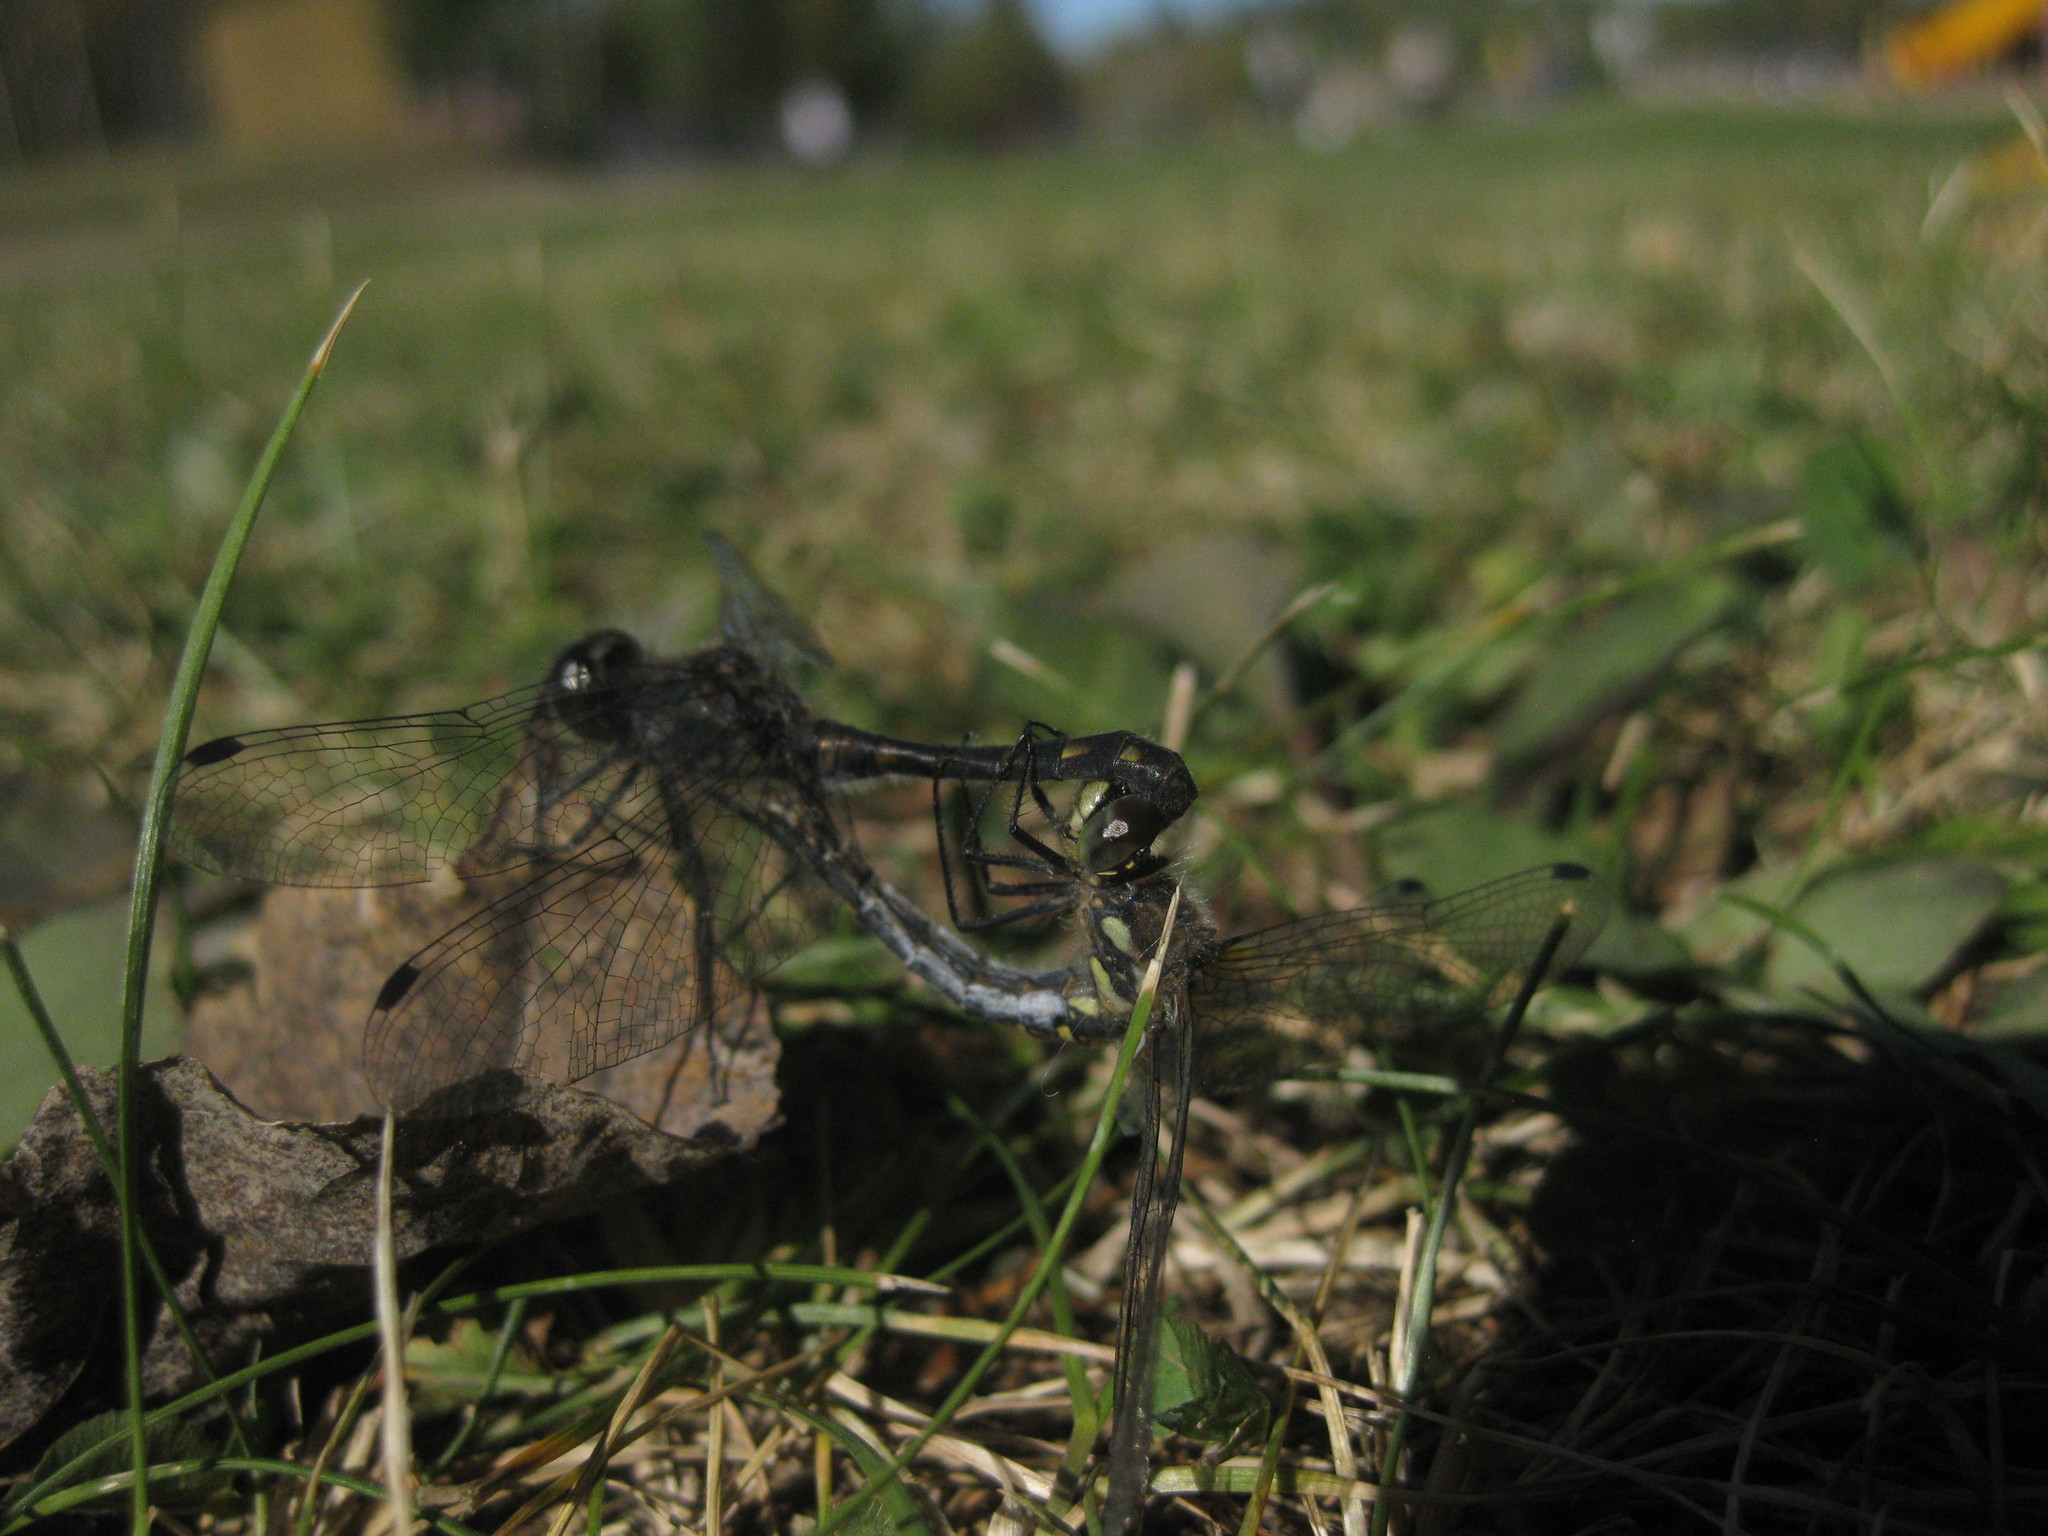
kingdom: Animalia
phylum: Arthropoda
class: Insecta
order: Odonata
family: Libellulidae
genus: Sympetrum
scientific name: Sympetrum danae
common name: Black darter
